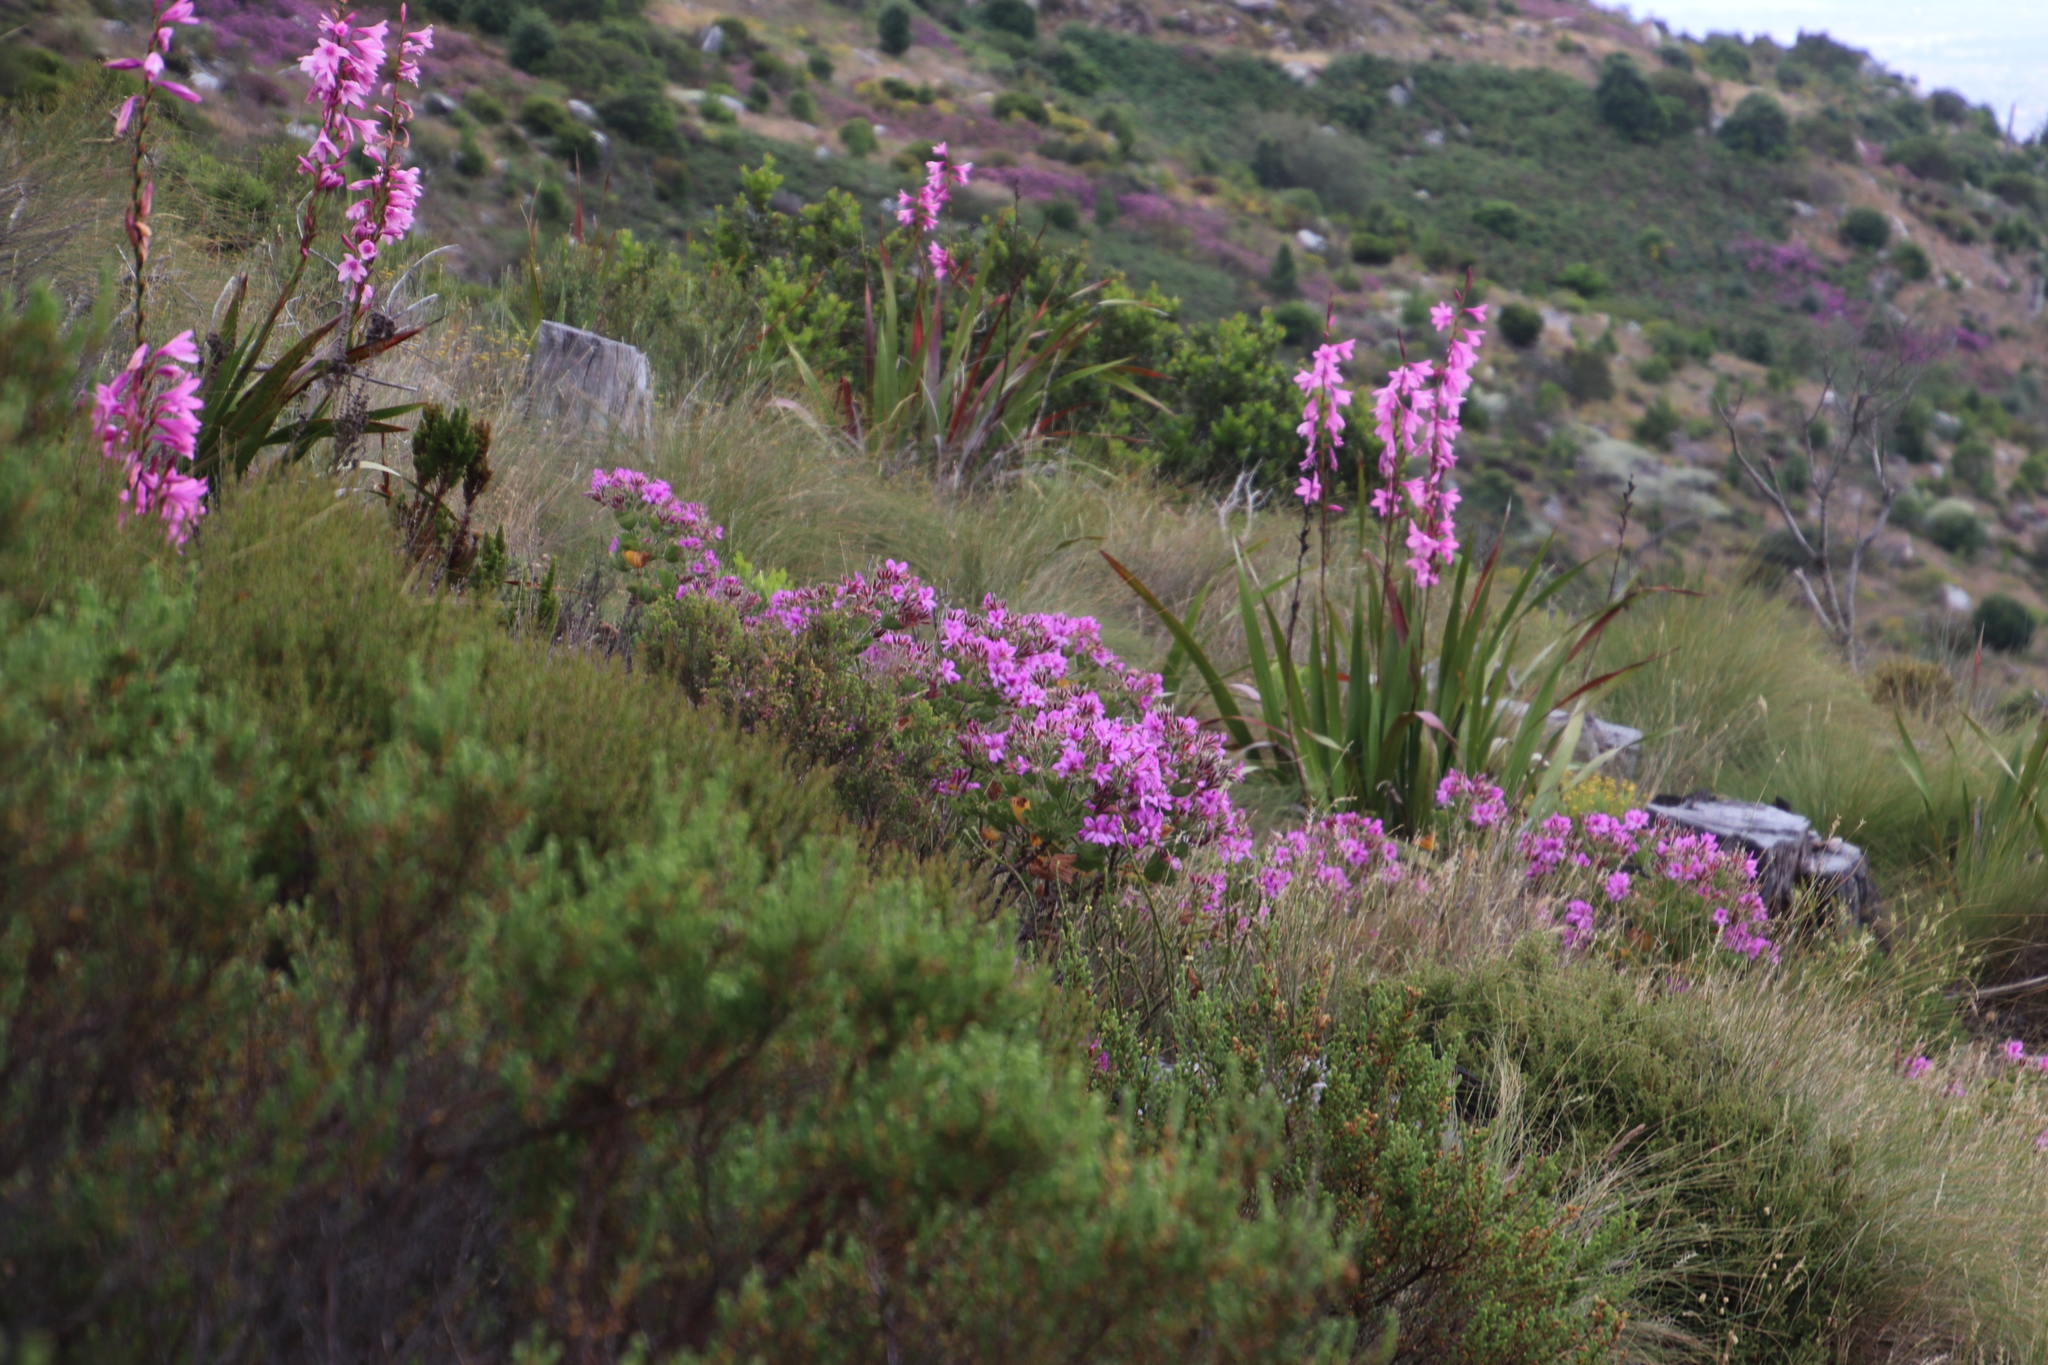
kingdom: Plantae
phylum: Tracheophyta
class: Magnoliopsida
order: Geraniales
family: Geraniaceae
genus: Pelargonium
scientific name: Pelargonium cucullatum
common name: Tree pelargonium
